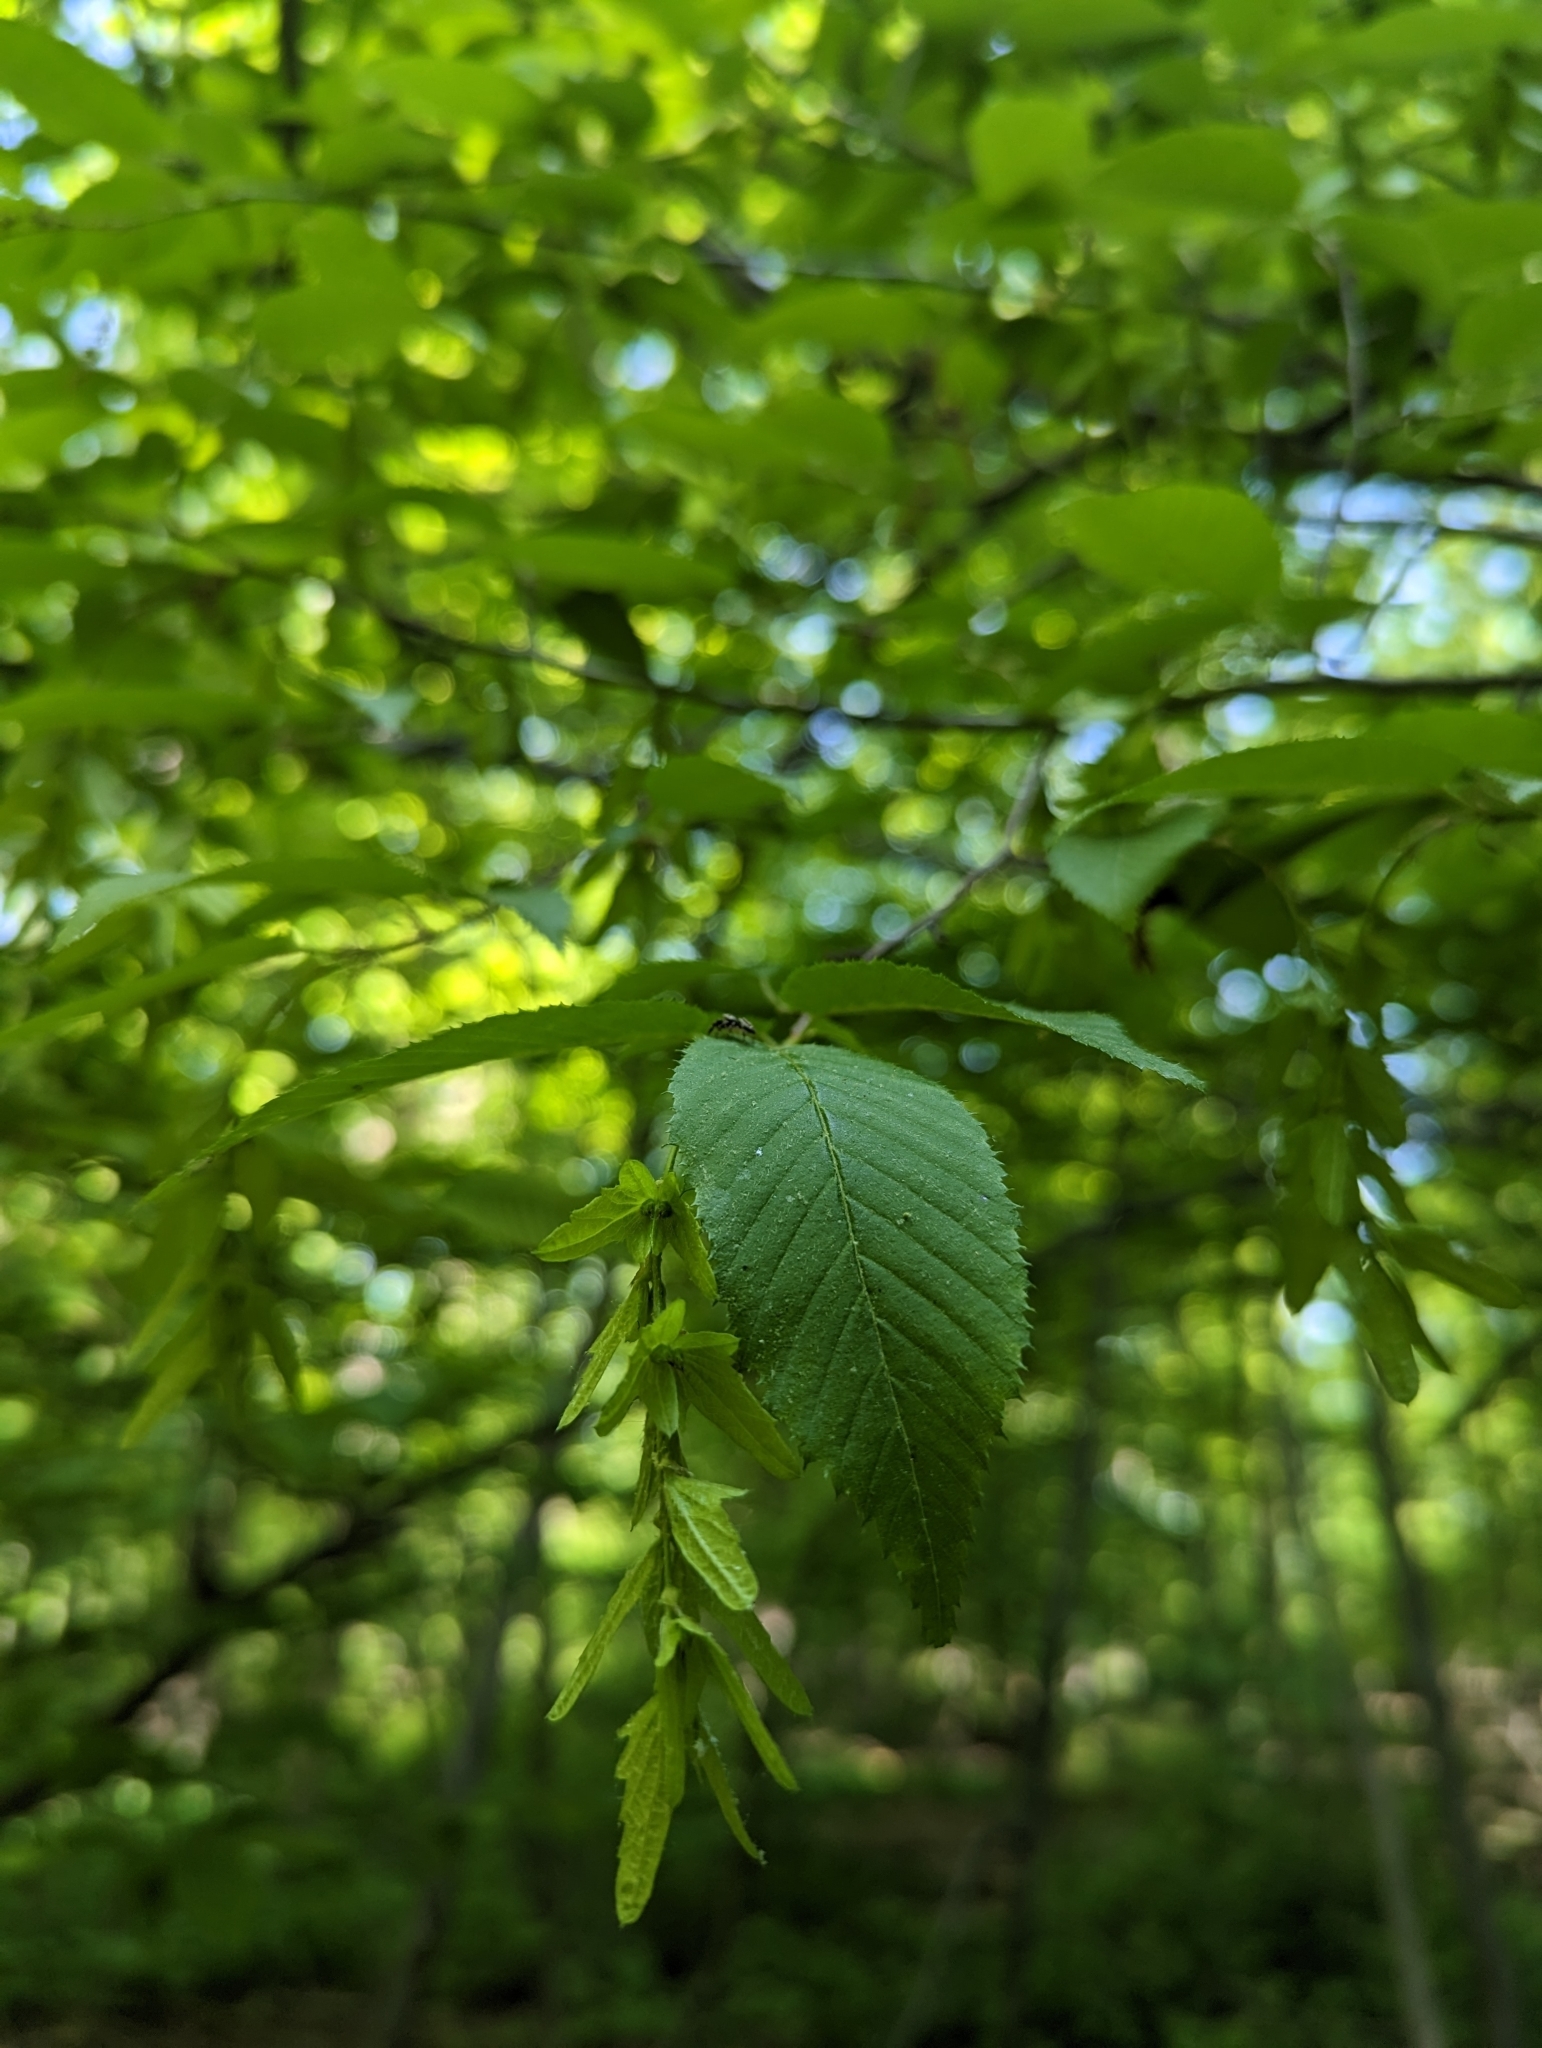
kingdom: Plantae
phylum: Tracheophyta
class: Magnoliopsida
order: Fagales
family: Betulaceae
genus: Carpinus
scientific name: Carpinus caroliniana
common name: American hornbeam
